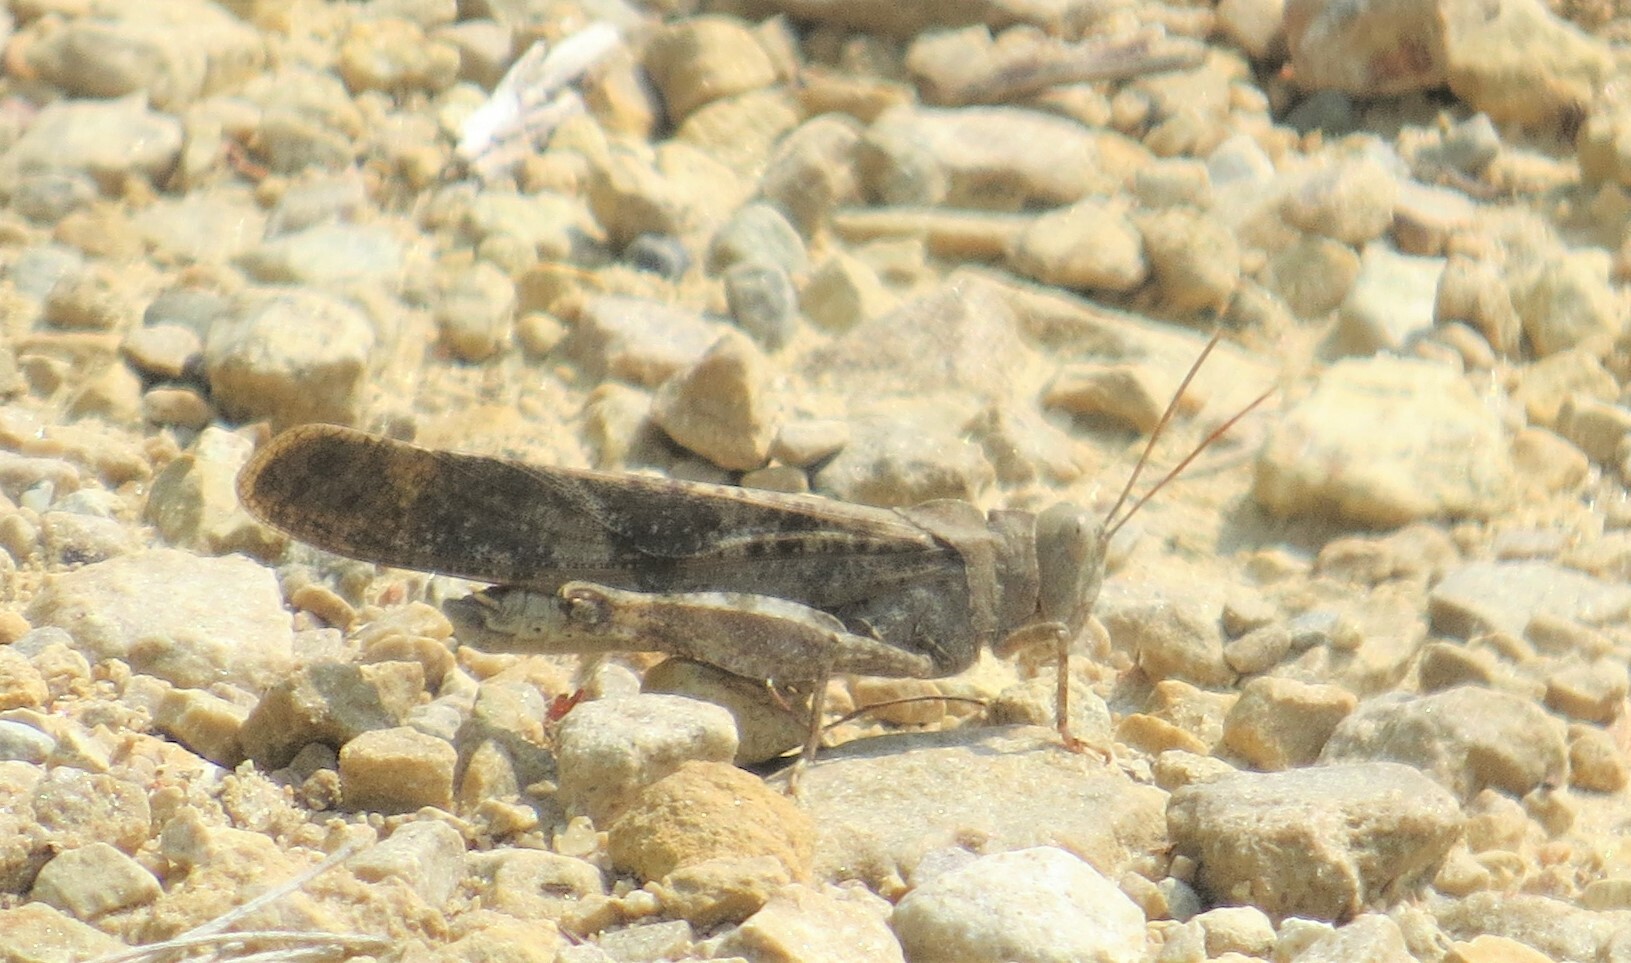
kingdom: Animalia
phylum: Arthropoda
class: Insecta
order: Orthoptera
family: Acrididae
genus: Dissosteira
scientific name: Dissosteira carolina
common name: Carolina grasshopper
